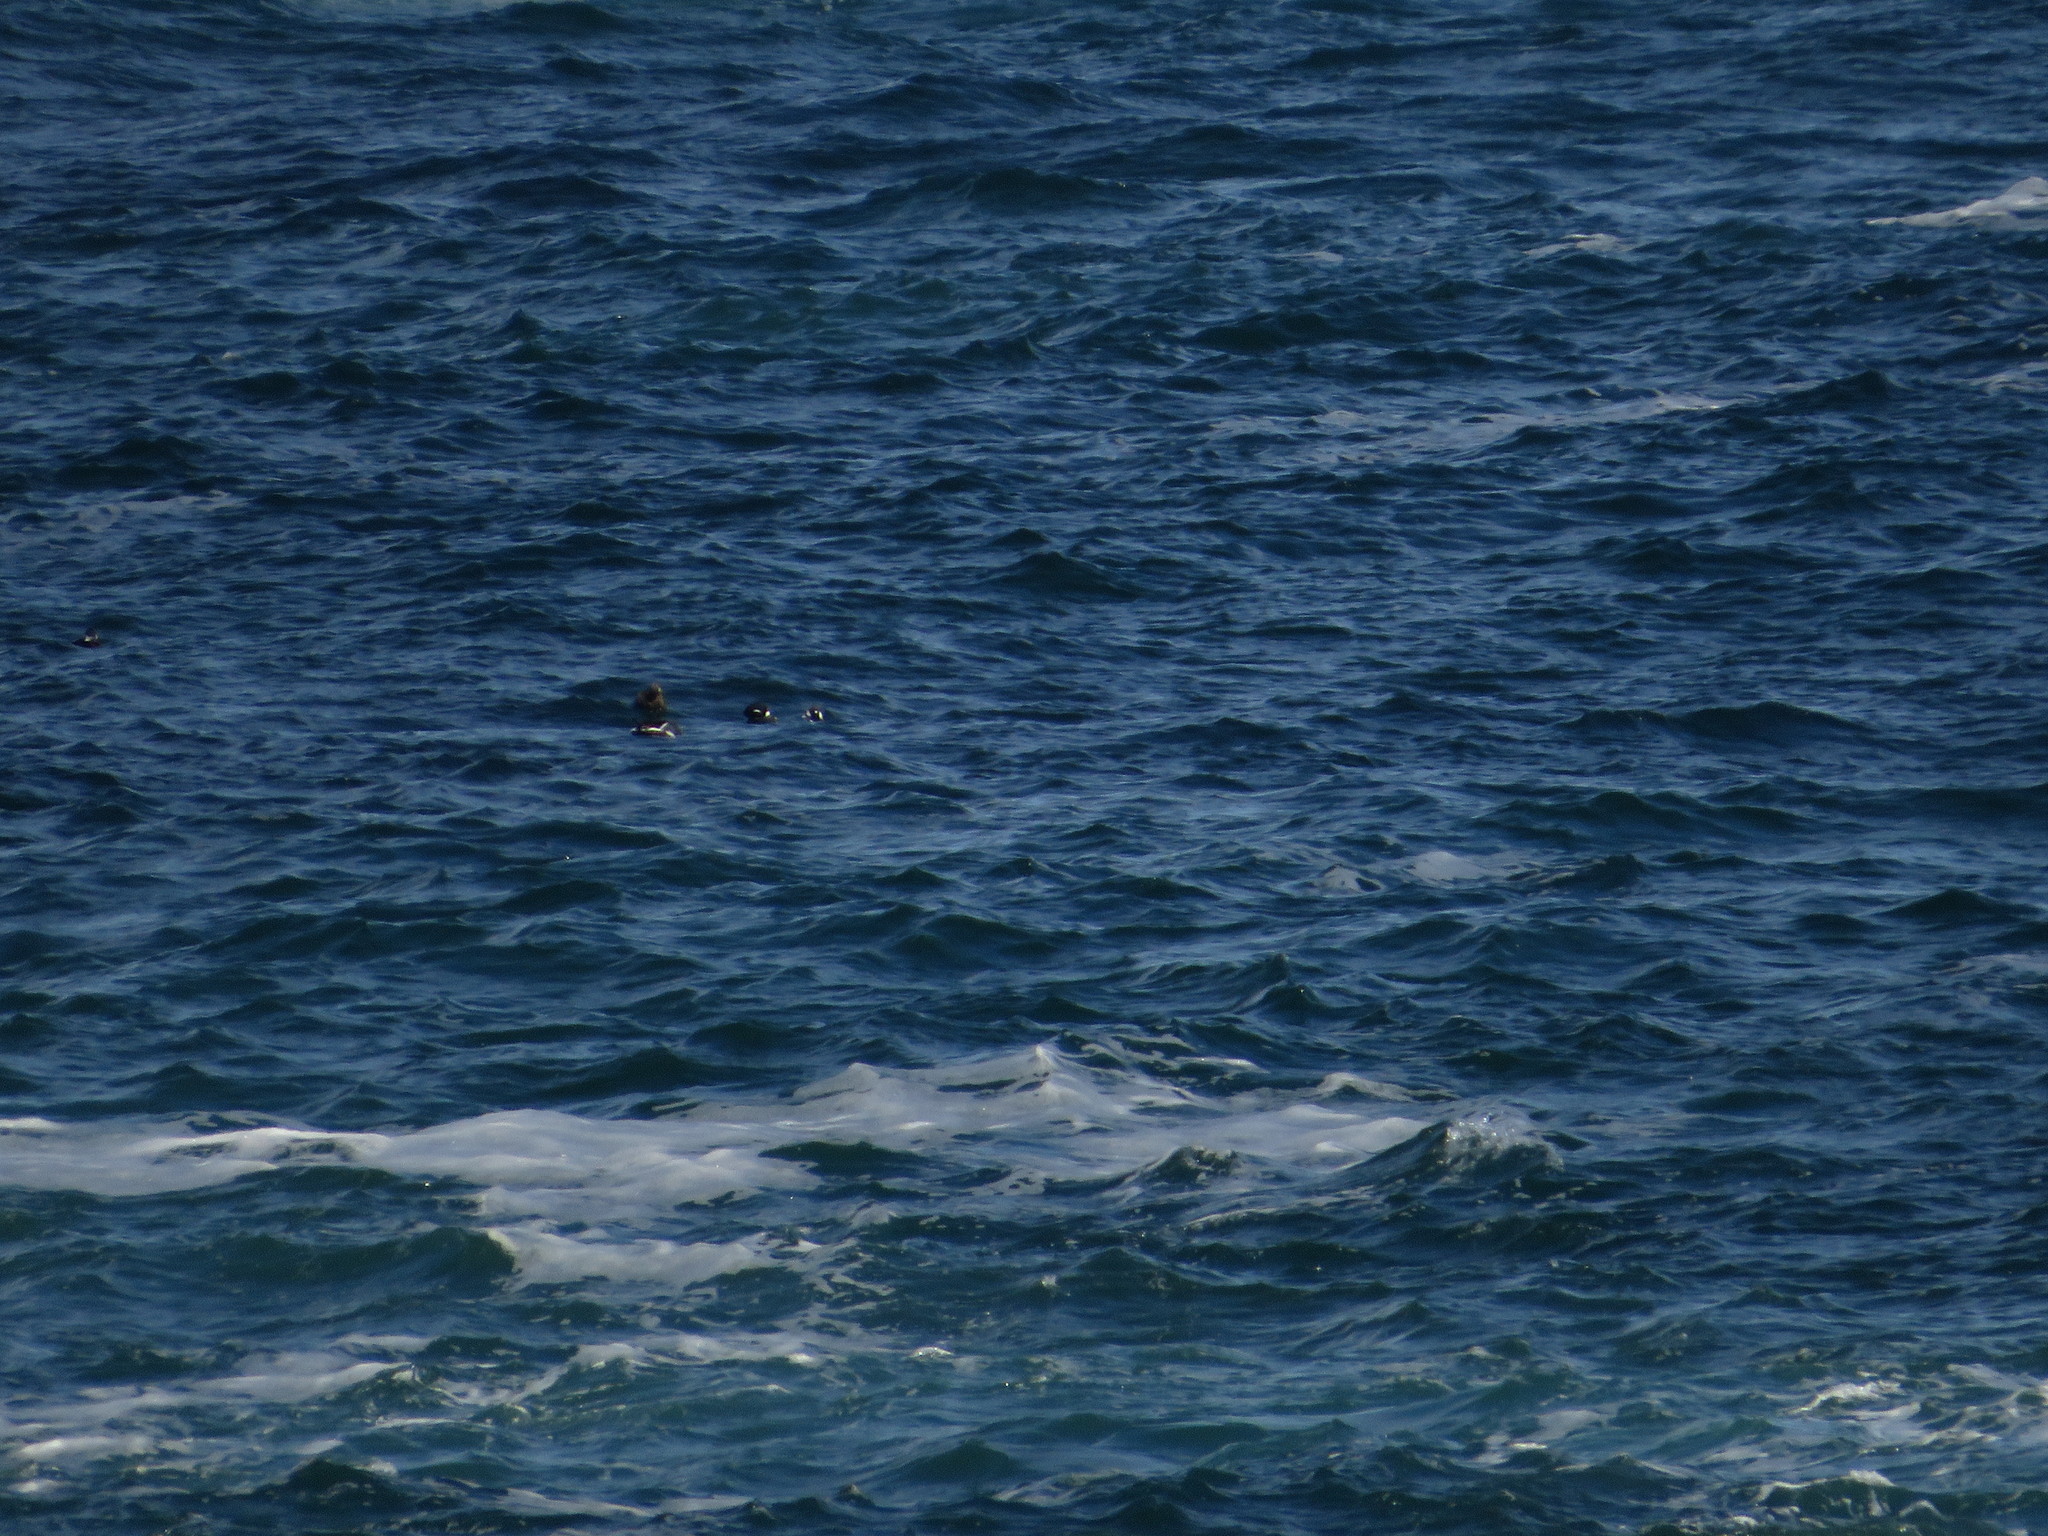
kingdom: Animalia
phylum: Chordata
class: Aves
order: Anseriformes
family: Anatidae
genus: Histrionicus
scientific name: Histrionicus histrionicus
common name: Harlequin duck
